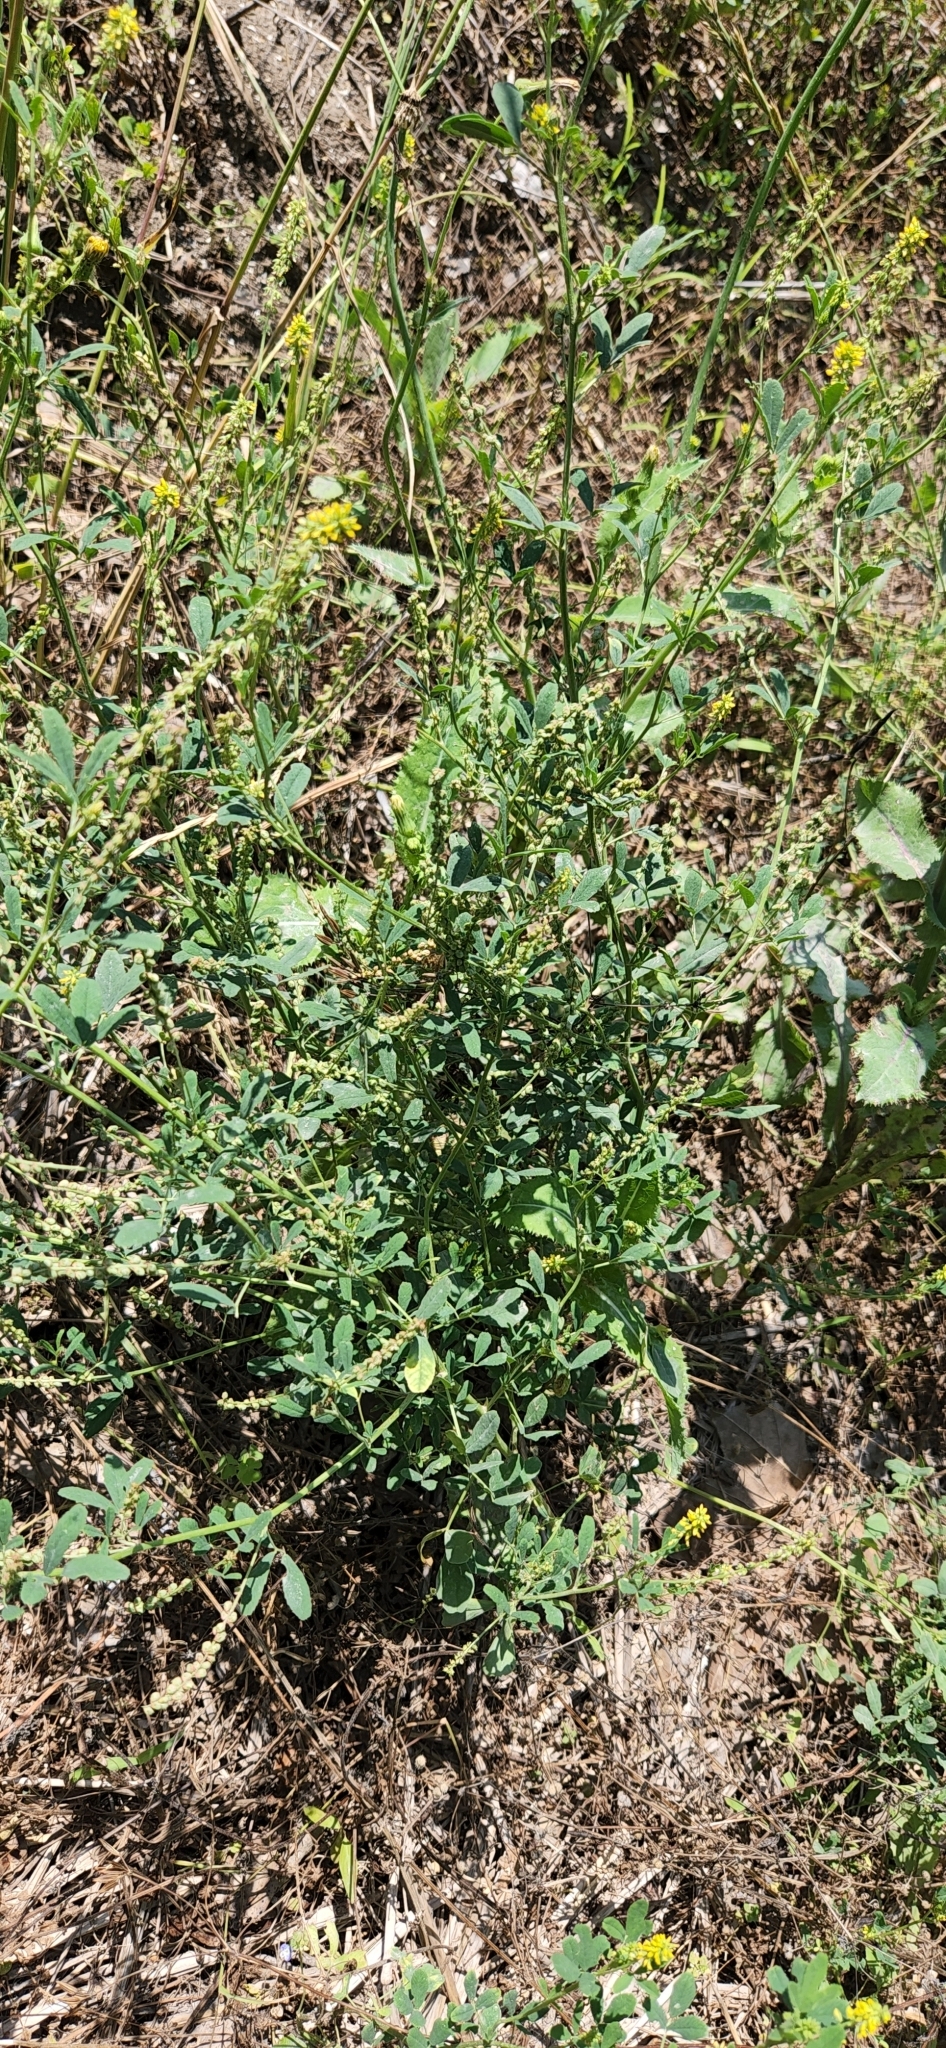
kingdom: Plantae
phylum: Tracheophyta
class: Magnoliopsida
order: Fabales
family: Fabaceae
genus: Melilotus
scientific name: Melilotus indicus
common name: Small melilot
